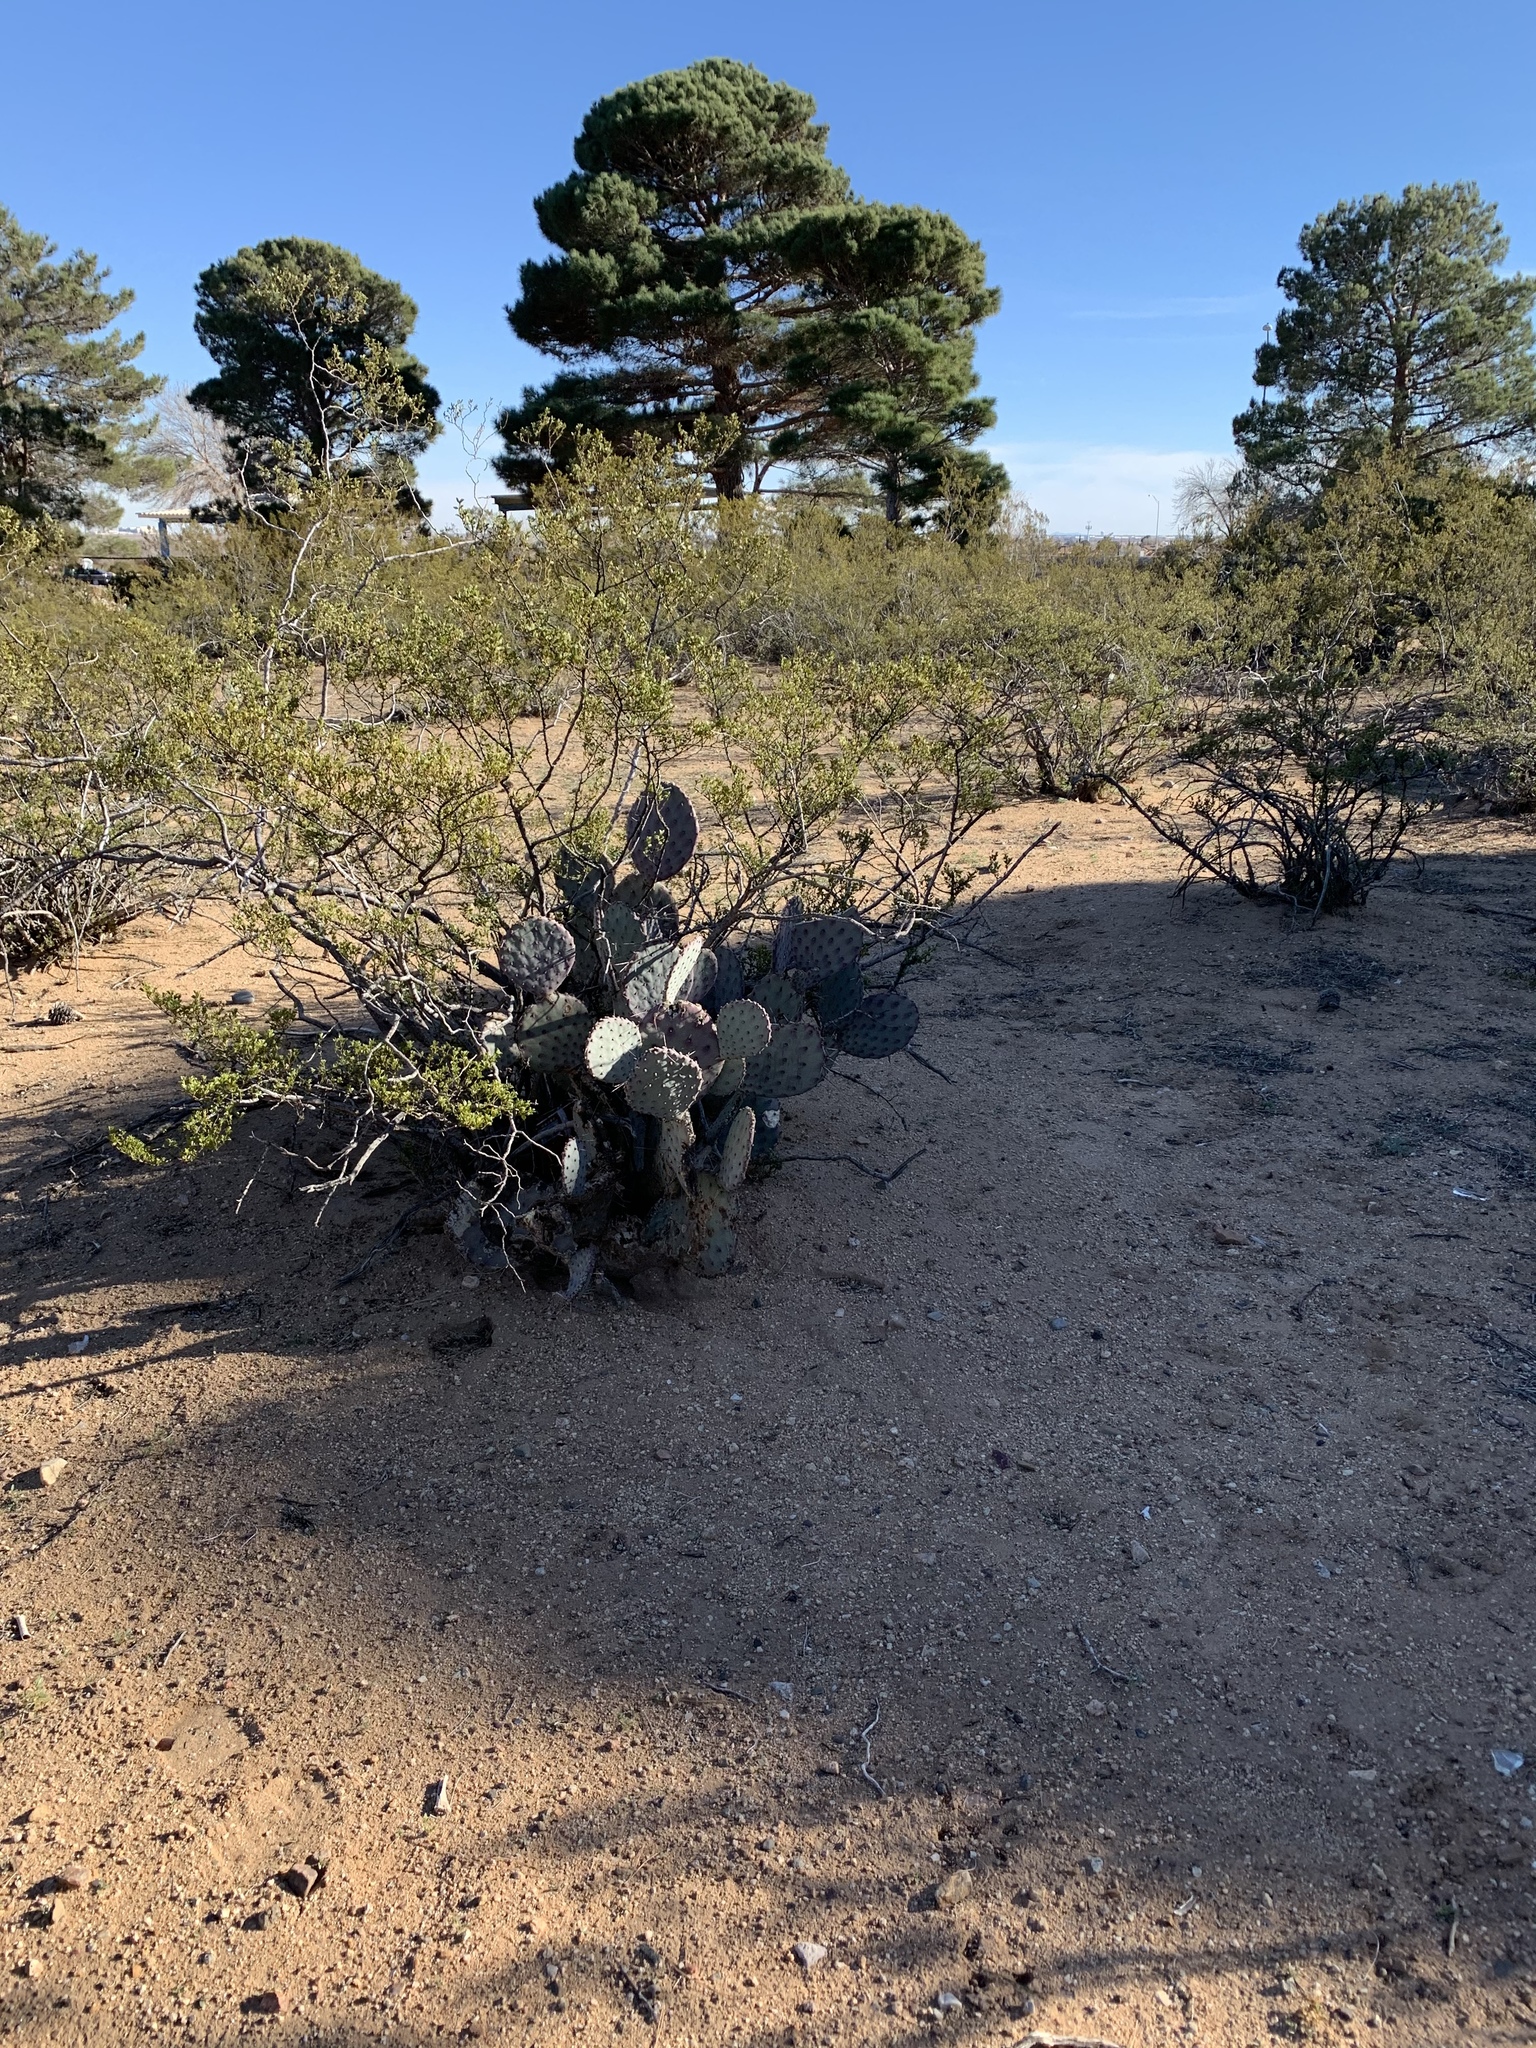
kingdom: Plantae
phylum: Tracheophyta
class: Magnoliopsida
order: Caryophyllales
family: Cactaceae
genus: Opuntia
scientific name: Opuntia macrocentra
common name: Purple prickly-pear
